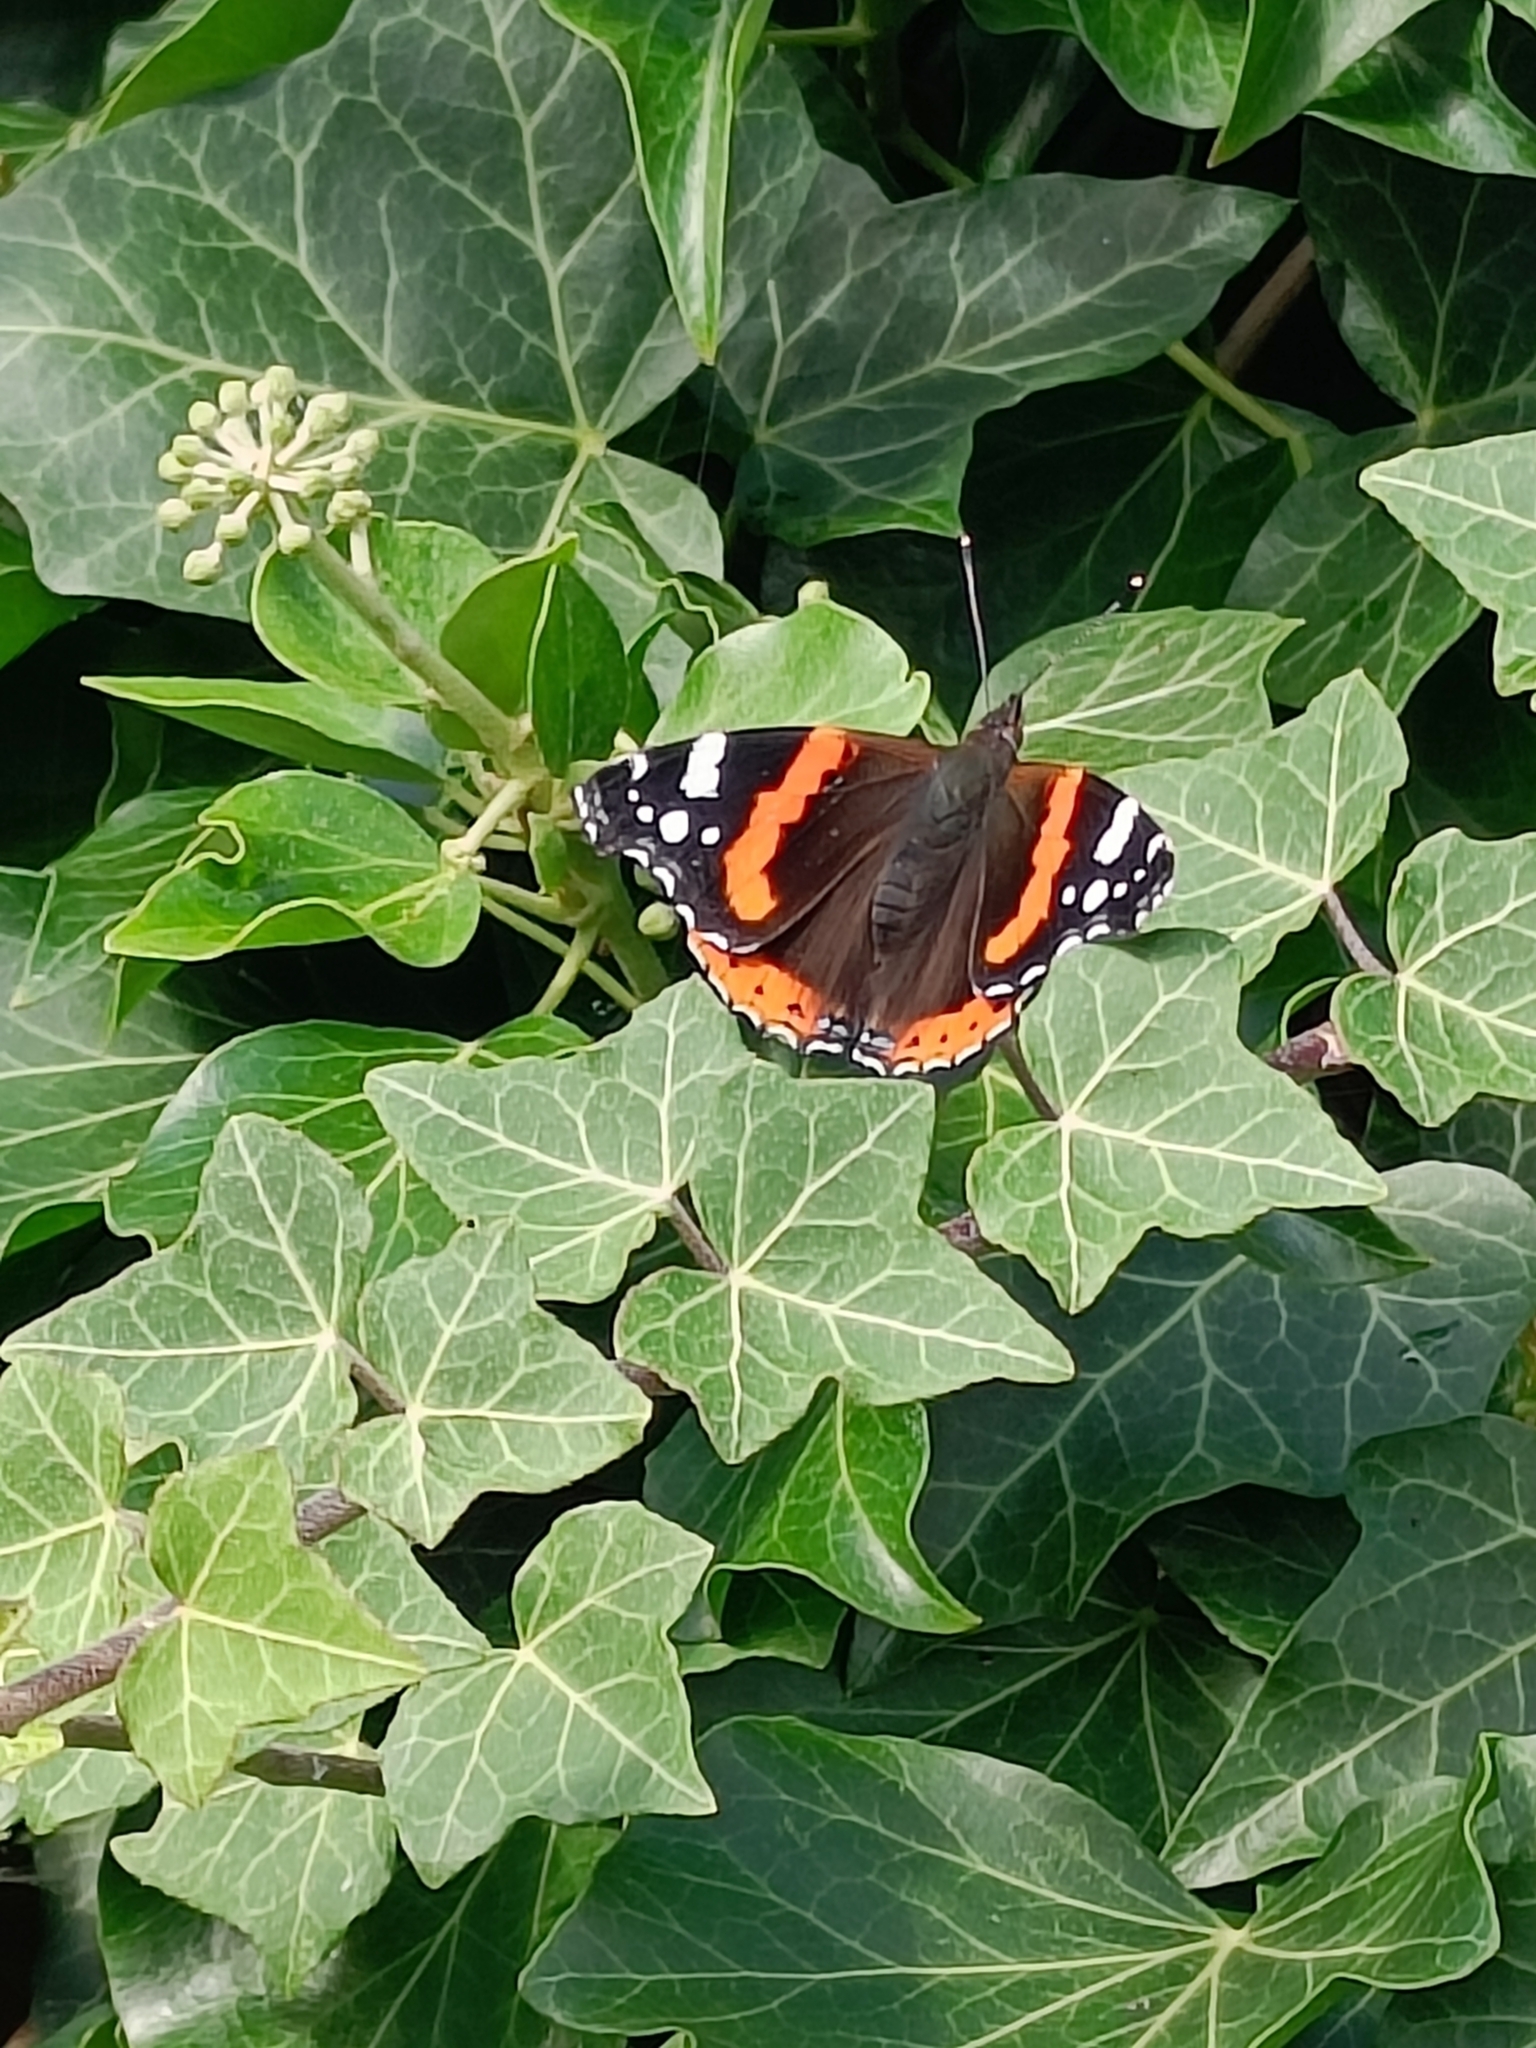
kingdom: Animalia
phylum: Arthropoda
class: Insecta
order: Lepidoptera
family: Nymphalidae
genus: Vanessa
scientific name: Vanessa atalanta
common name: Red admiral
